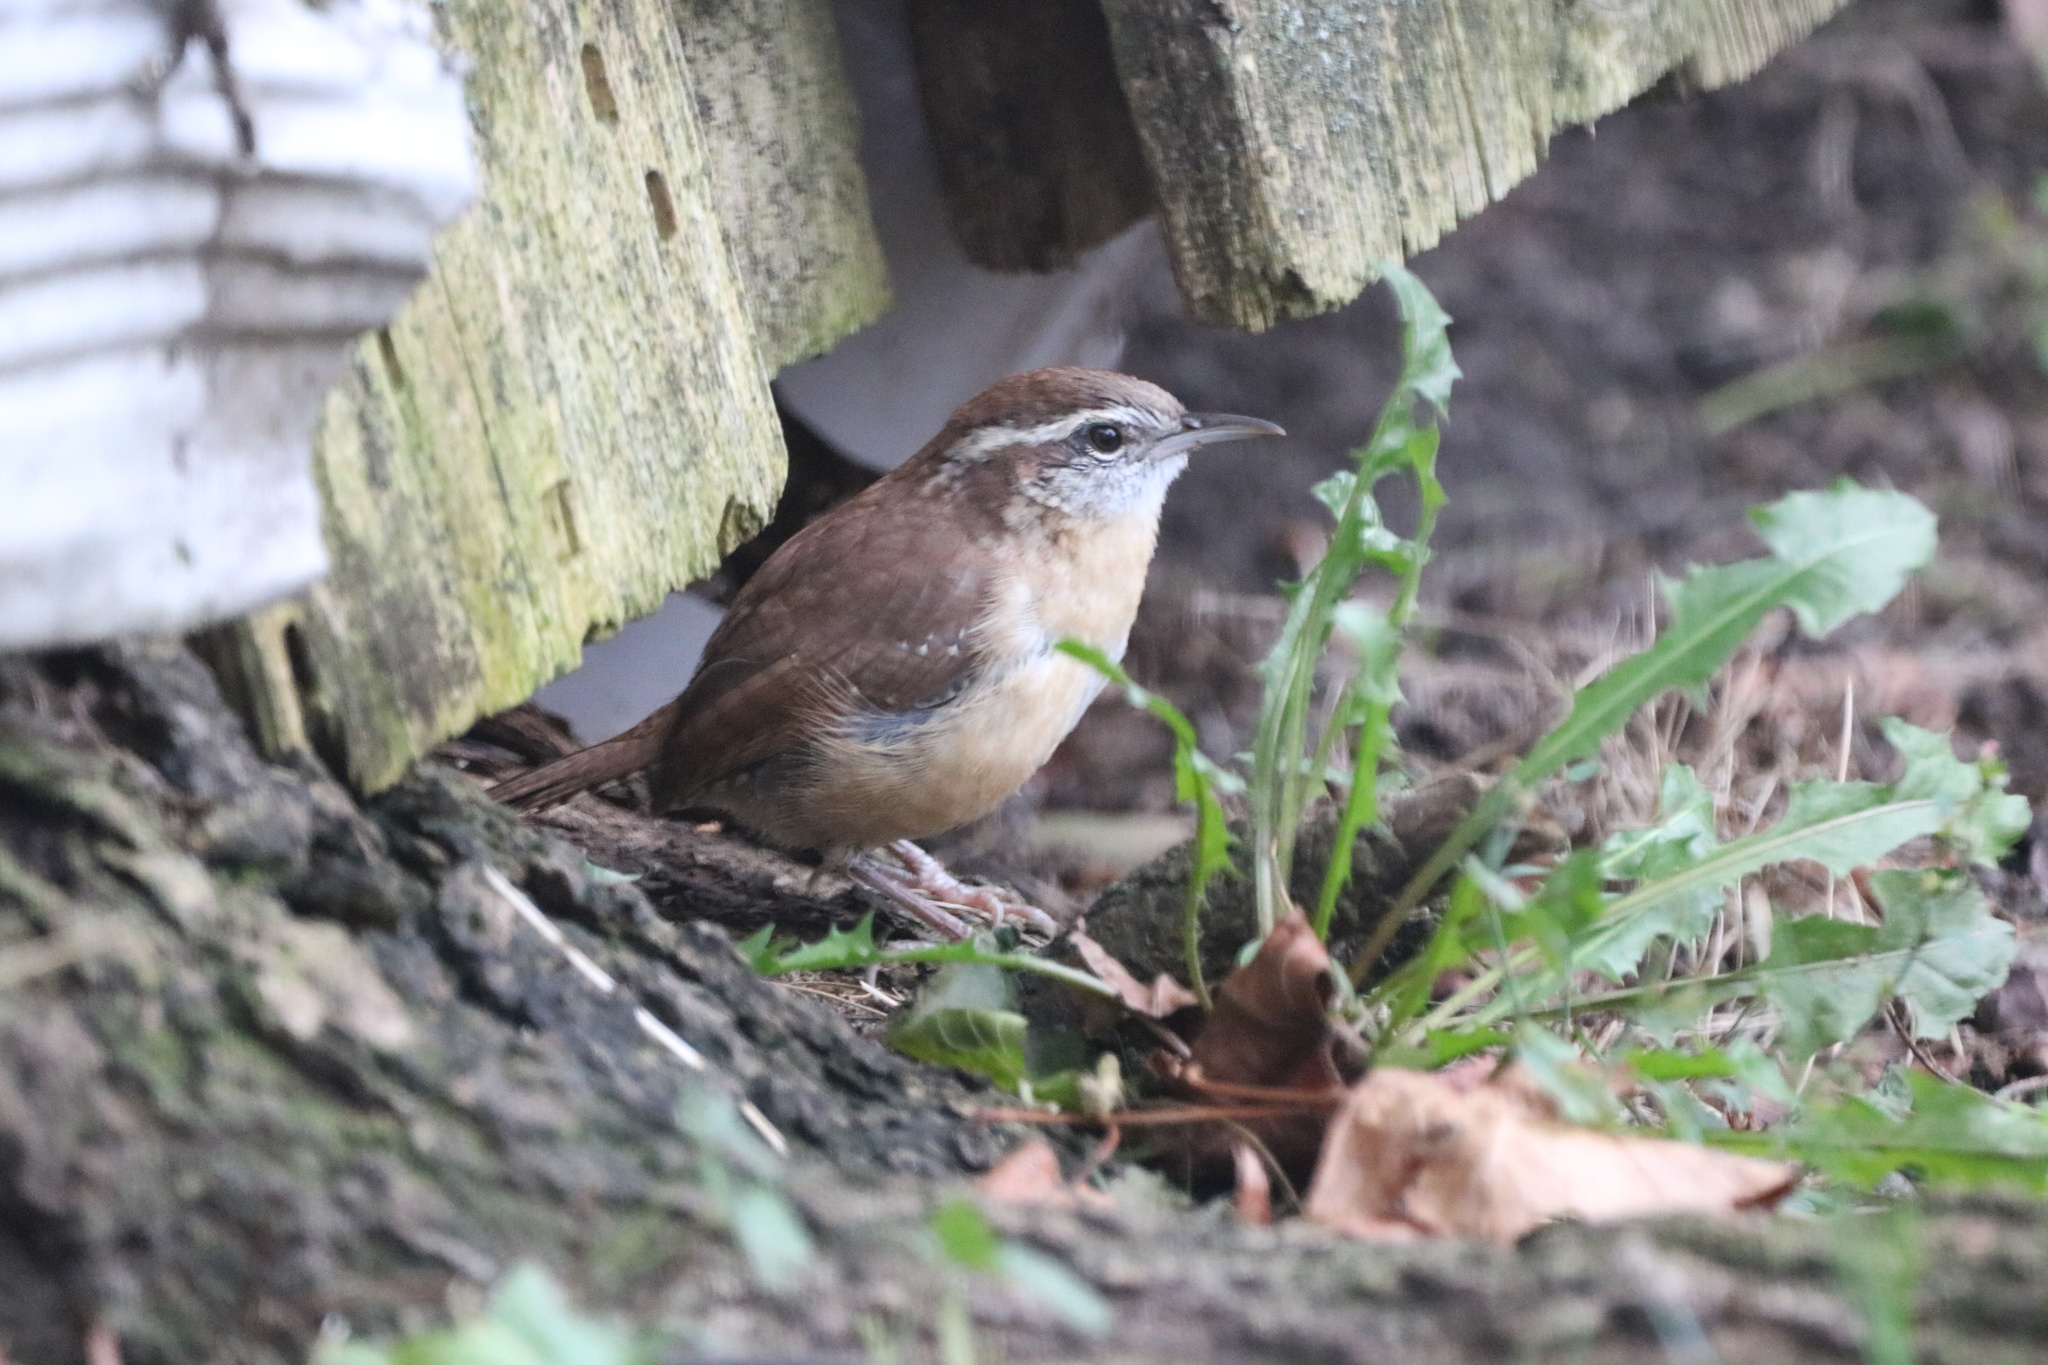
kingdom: Animalia
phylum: Chordata
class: Aves
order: Passeriformes
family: Troglodytidae
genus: Thryothorus
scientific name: Thryothorus ludovicianus
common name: Carolina wren
